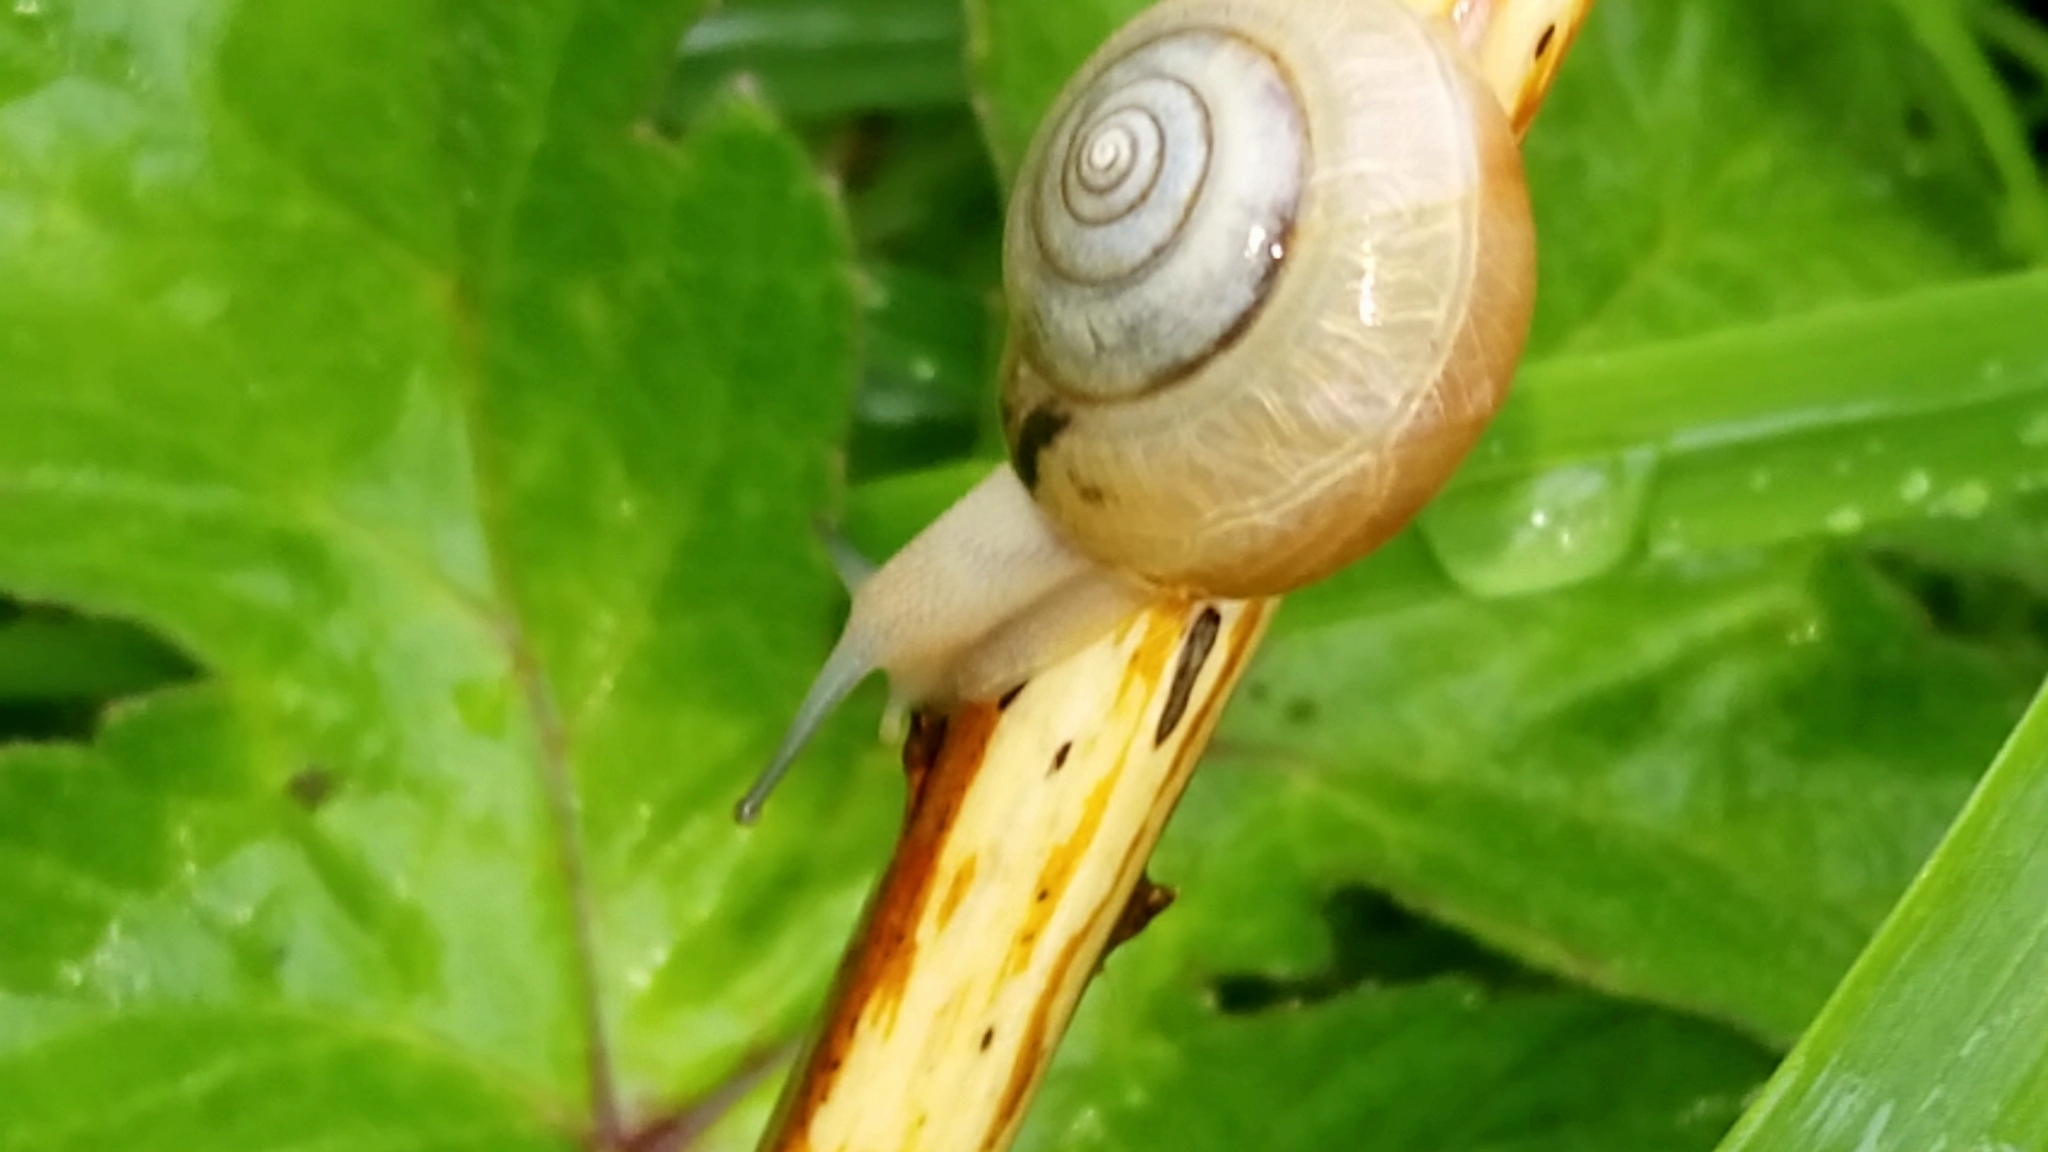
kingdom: Animalia
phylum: Mollusca
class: Gastropoda
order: Stylommatophora
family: Hygromiidae
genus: Monacha
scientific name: Monacha cantiana
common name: Kentish snail
